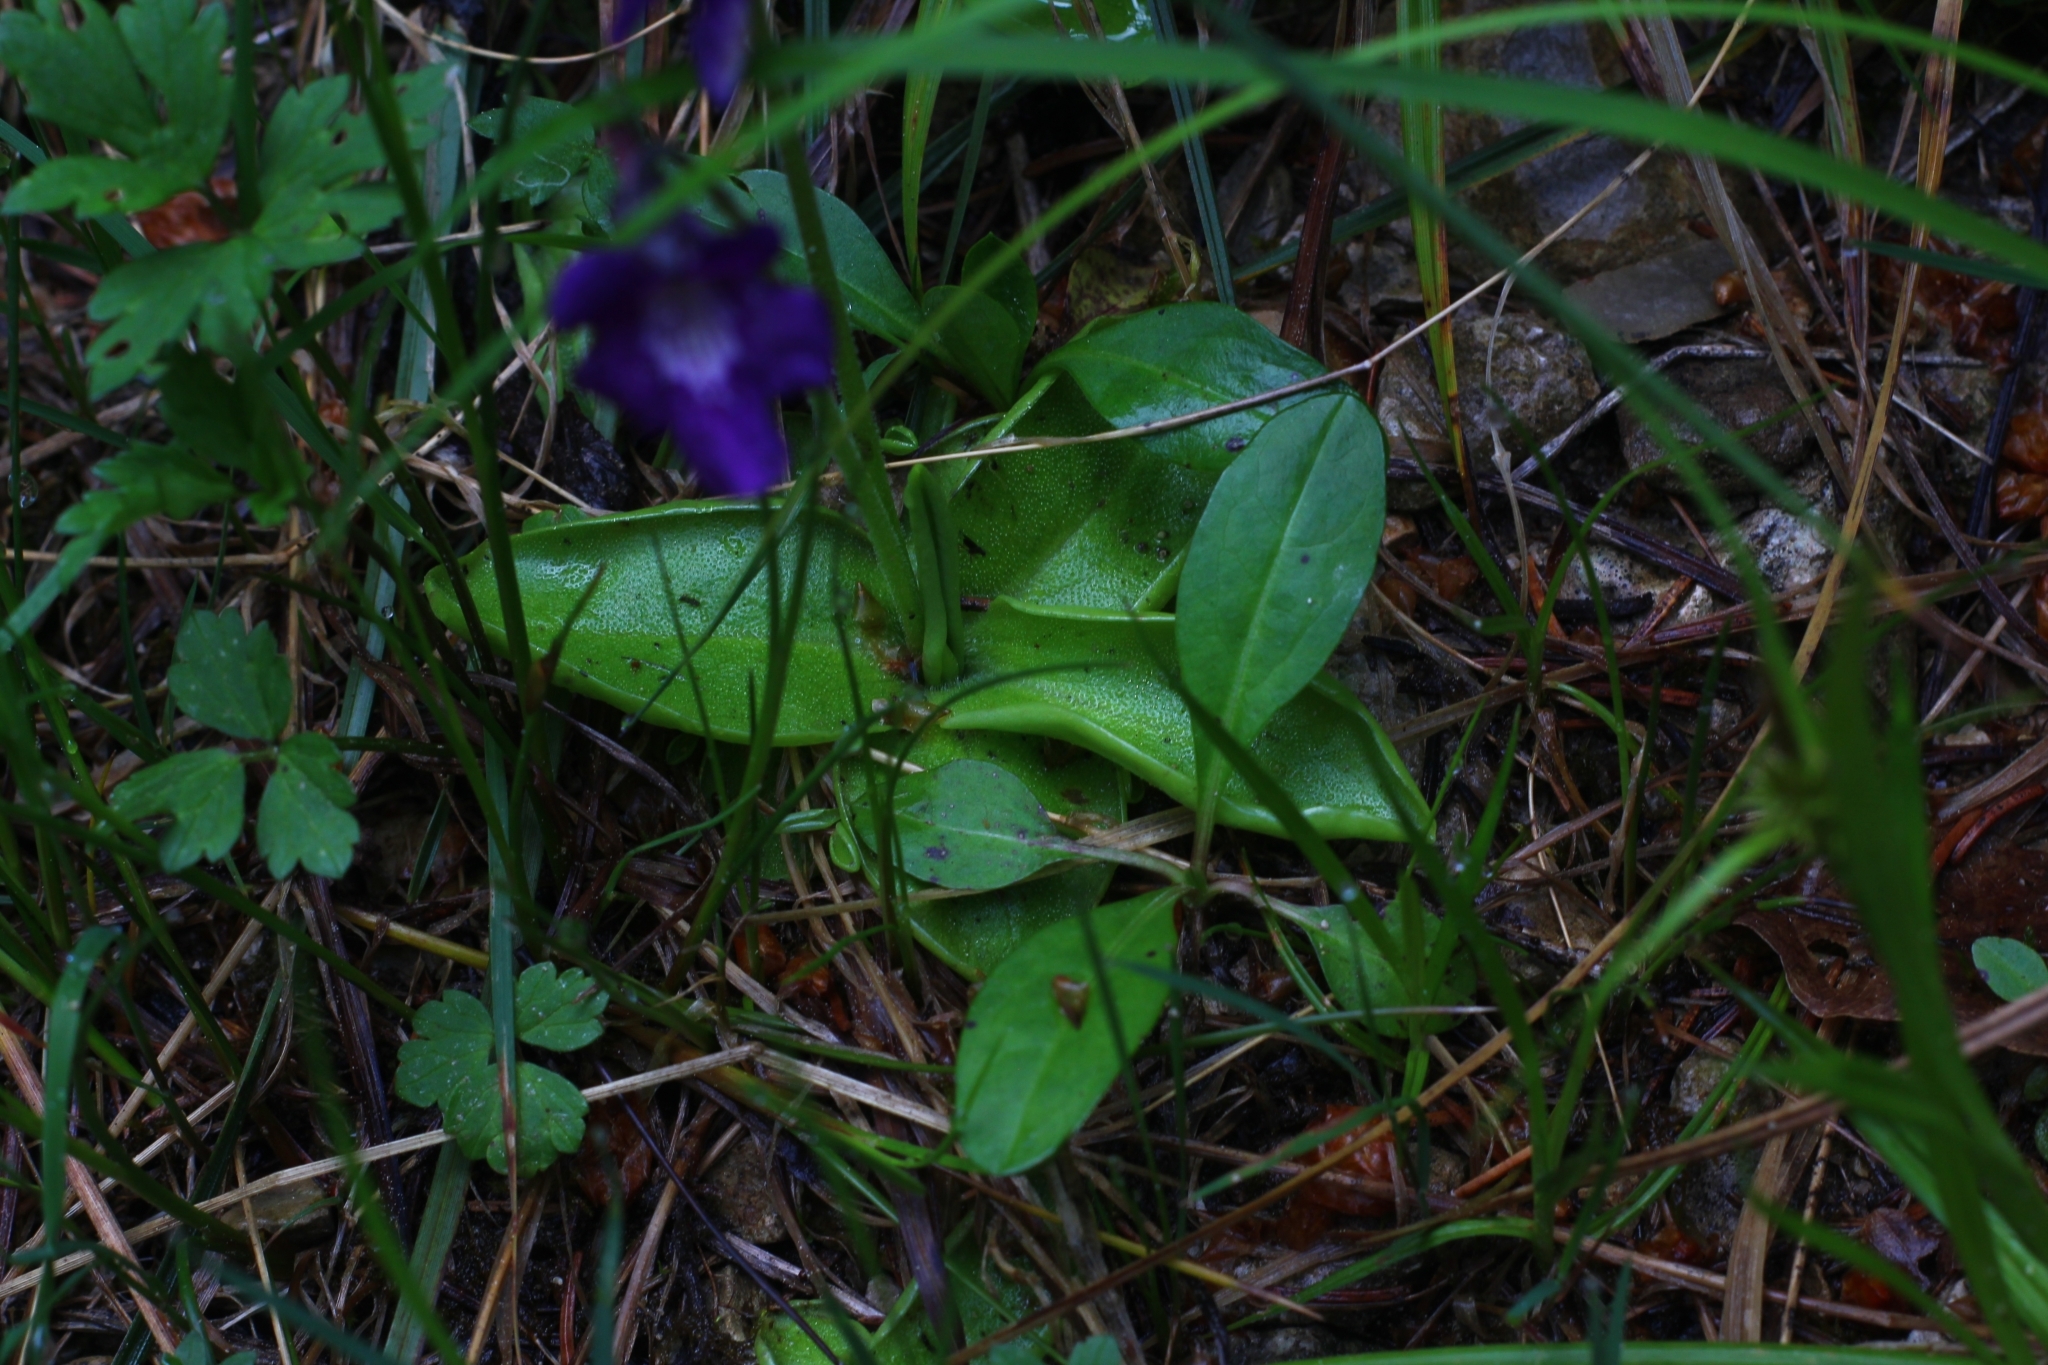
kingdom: Plantae
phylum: Tracheophyta
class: Magnoliopsida
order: Lamiales
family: Lentibulariaceae
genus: Pinguicula
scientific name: Pinguicula grandiflora
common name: Large-flowered butterwort
